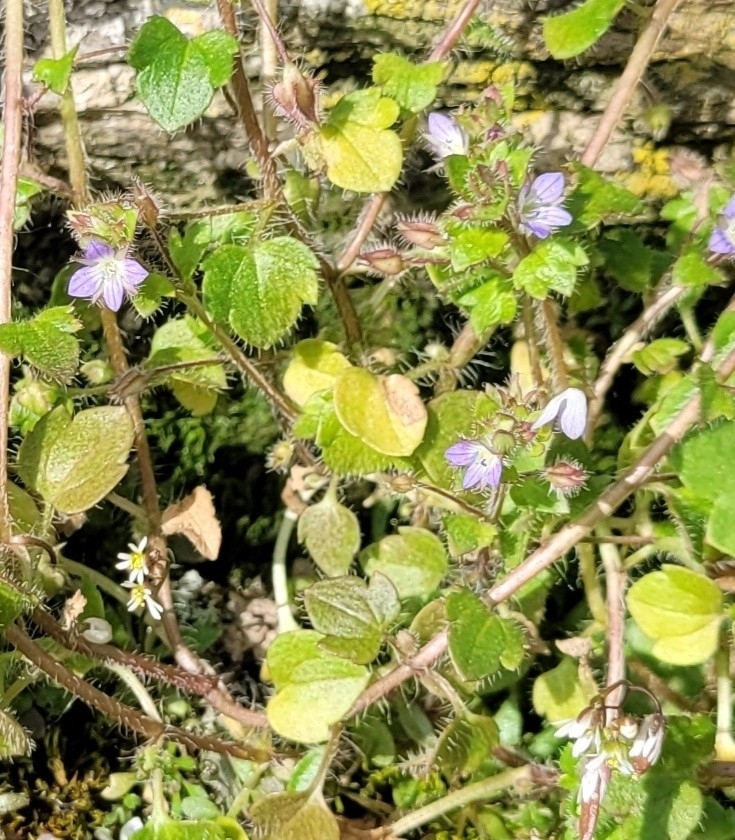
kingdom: Plantae
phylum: Tracheophyta
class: Magnoliopsida
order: Lamiales
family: Plantaginaceae
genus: Veronica
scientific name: Veronica hederifolia
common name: Ivy-leaved speedwell
